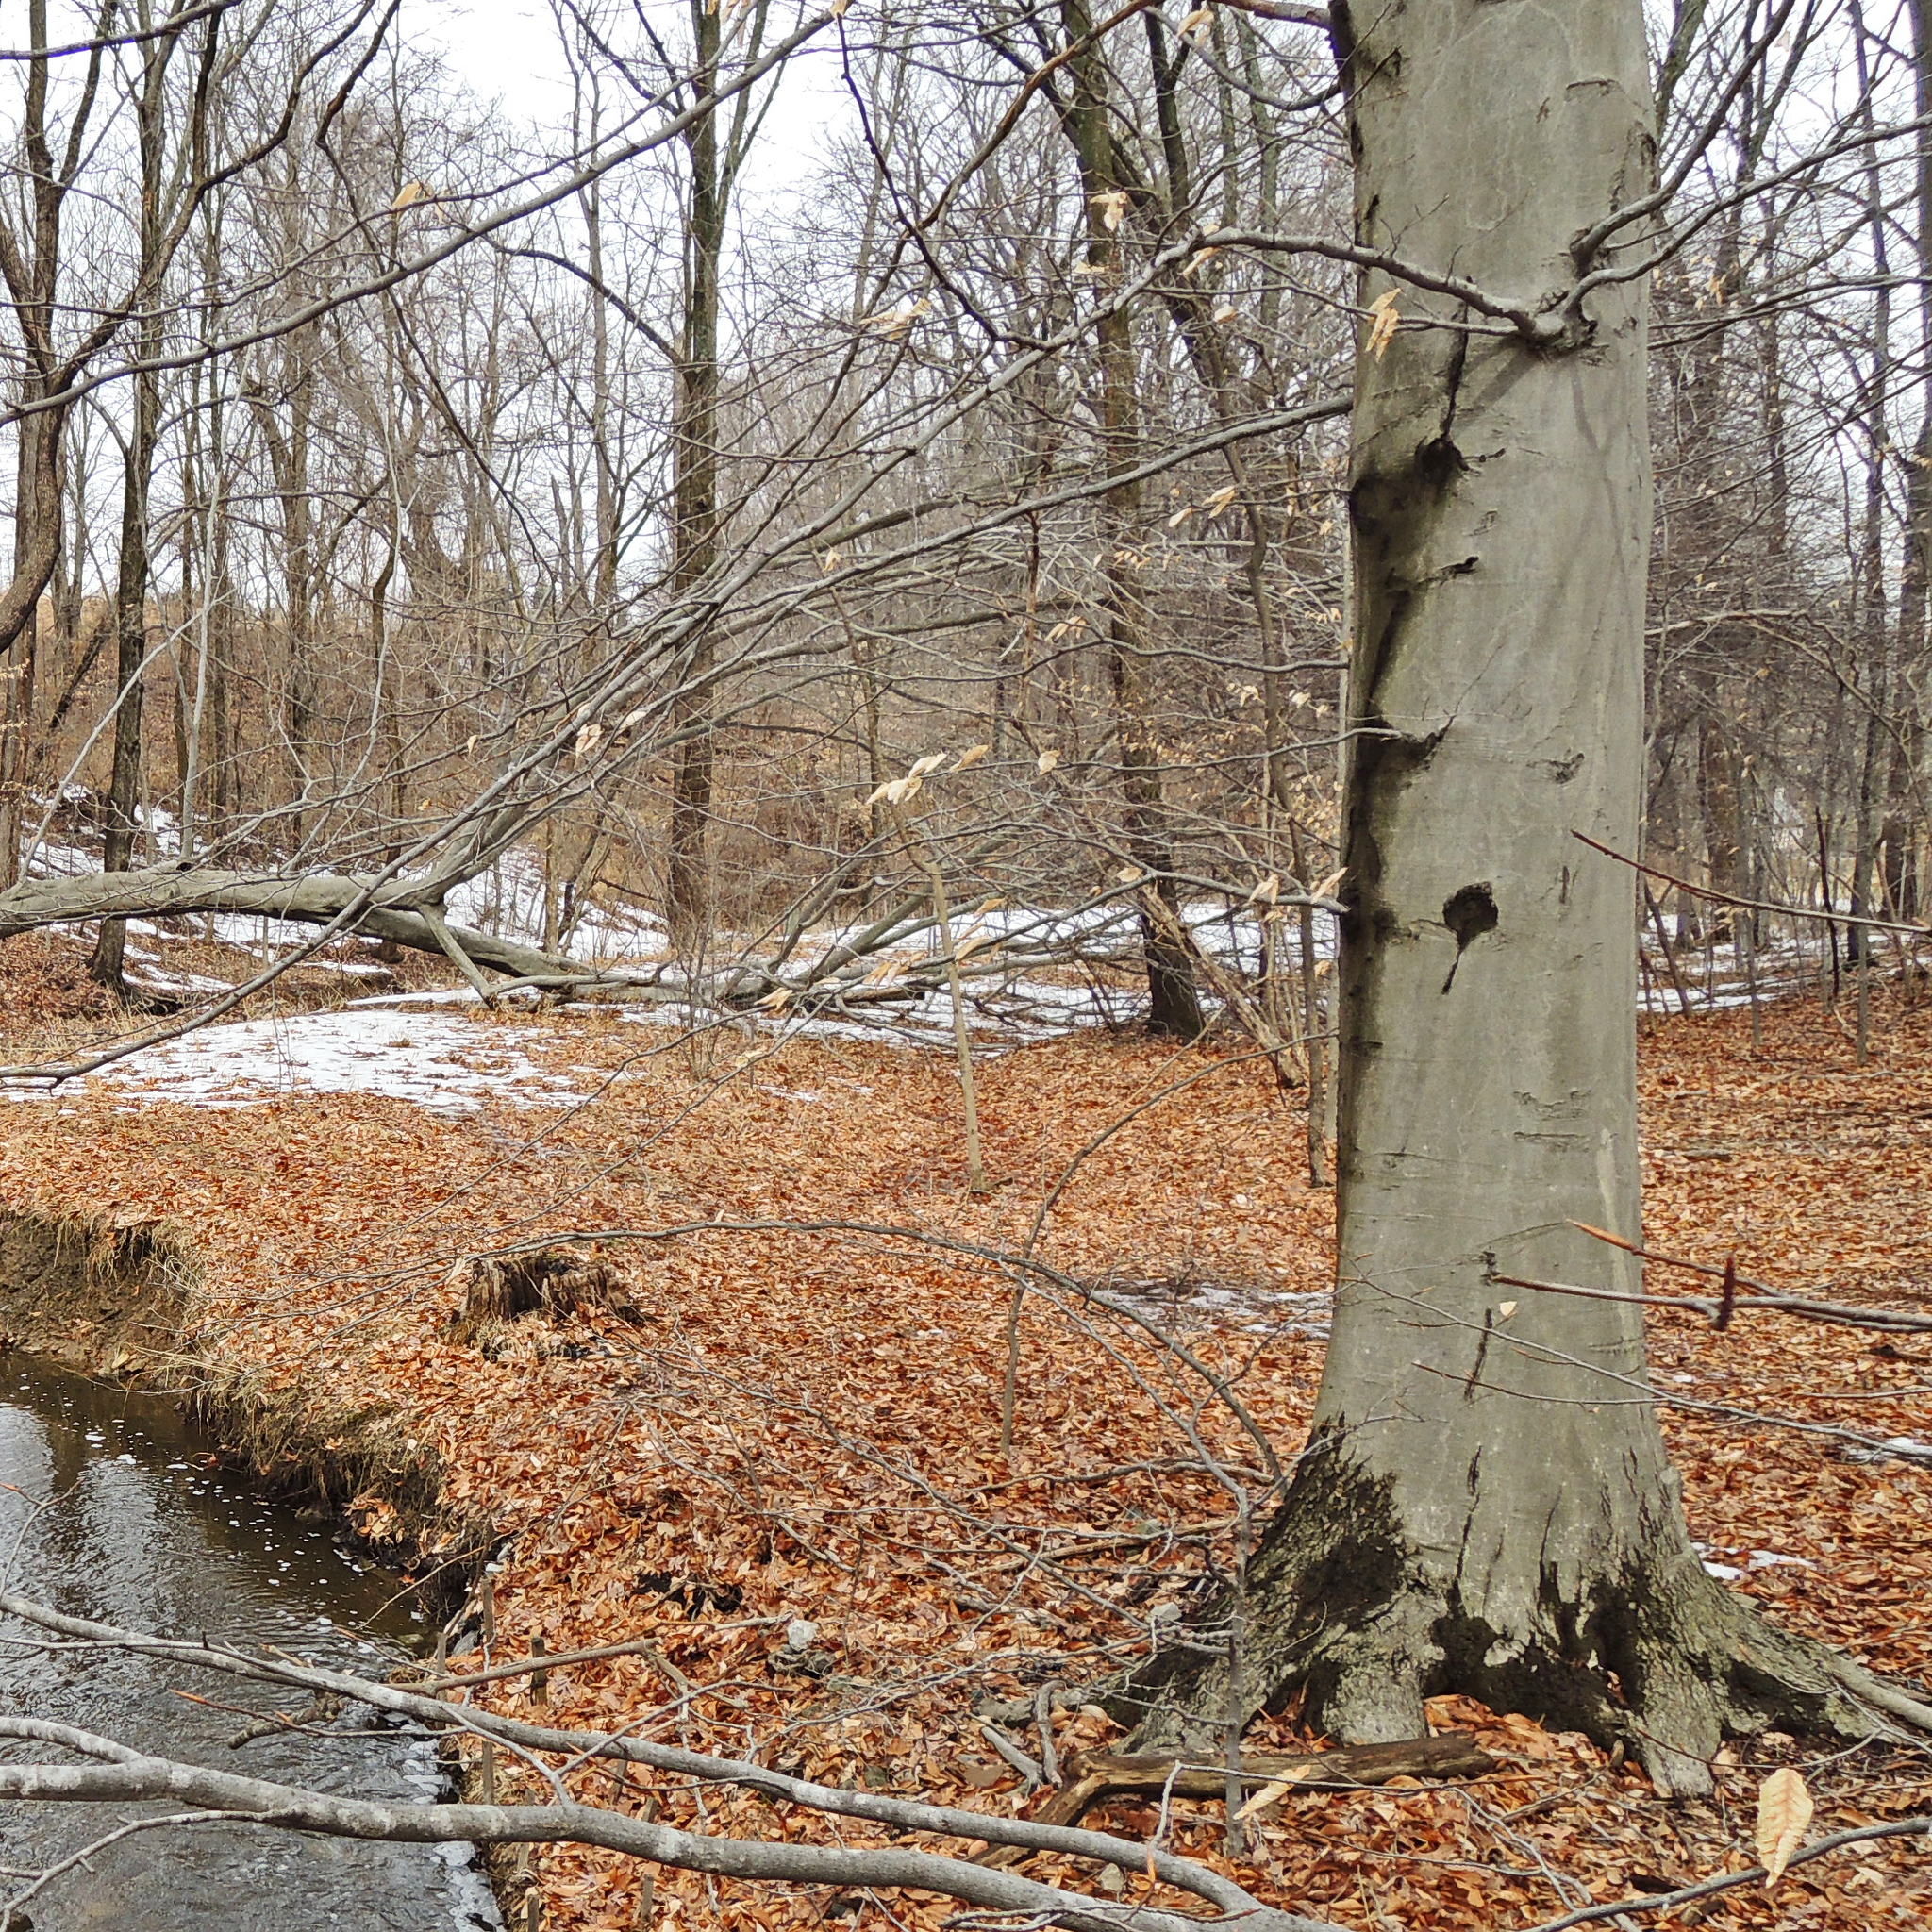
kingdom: Plantae
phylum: Tracheophyta
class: Magnoliopsida
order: Fagales
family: Fagaceae
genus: Fagus
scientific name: Fagus grandifolia
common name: American beech
